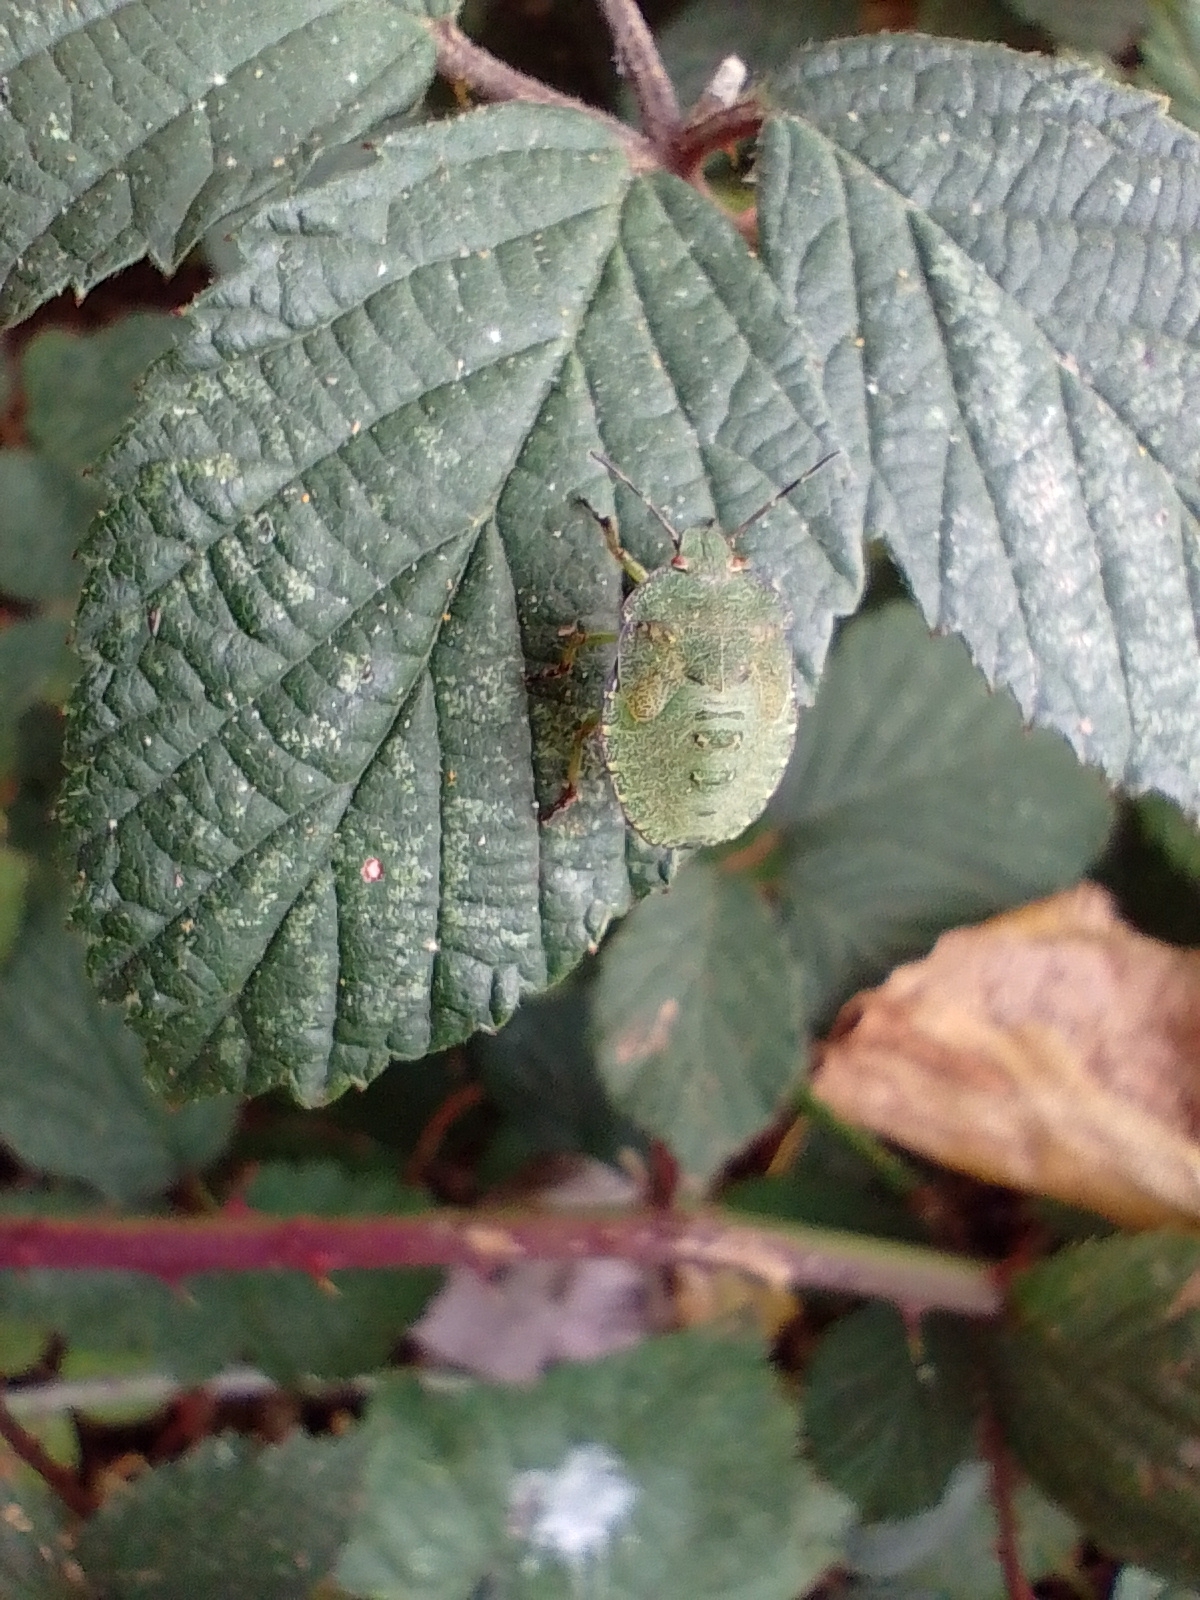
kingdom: Animalia
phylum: Arthropoda
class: Insecta
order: Hemiptera
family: Pentatomidae
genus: Palomena
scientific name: Palomena prasina
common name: Green shieldbug
